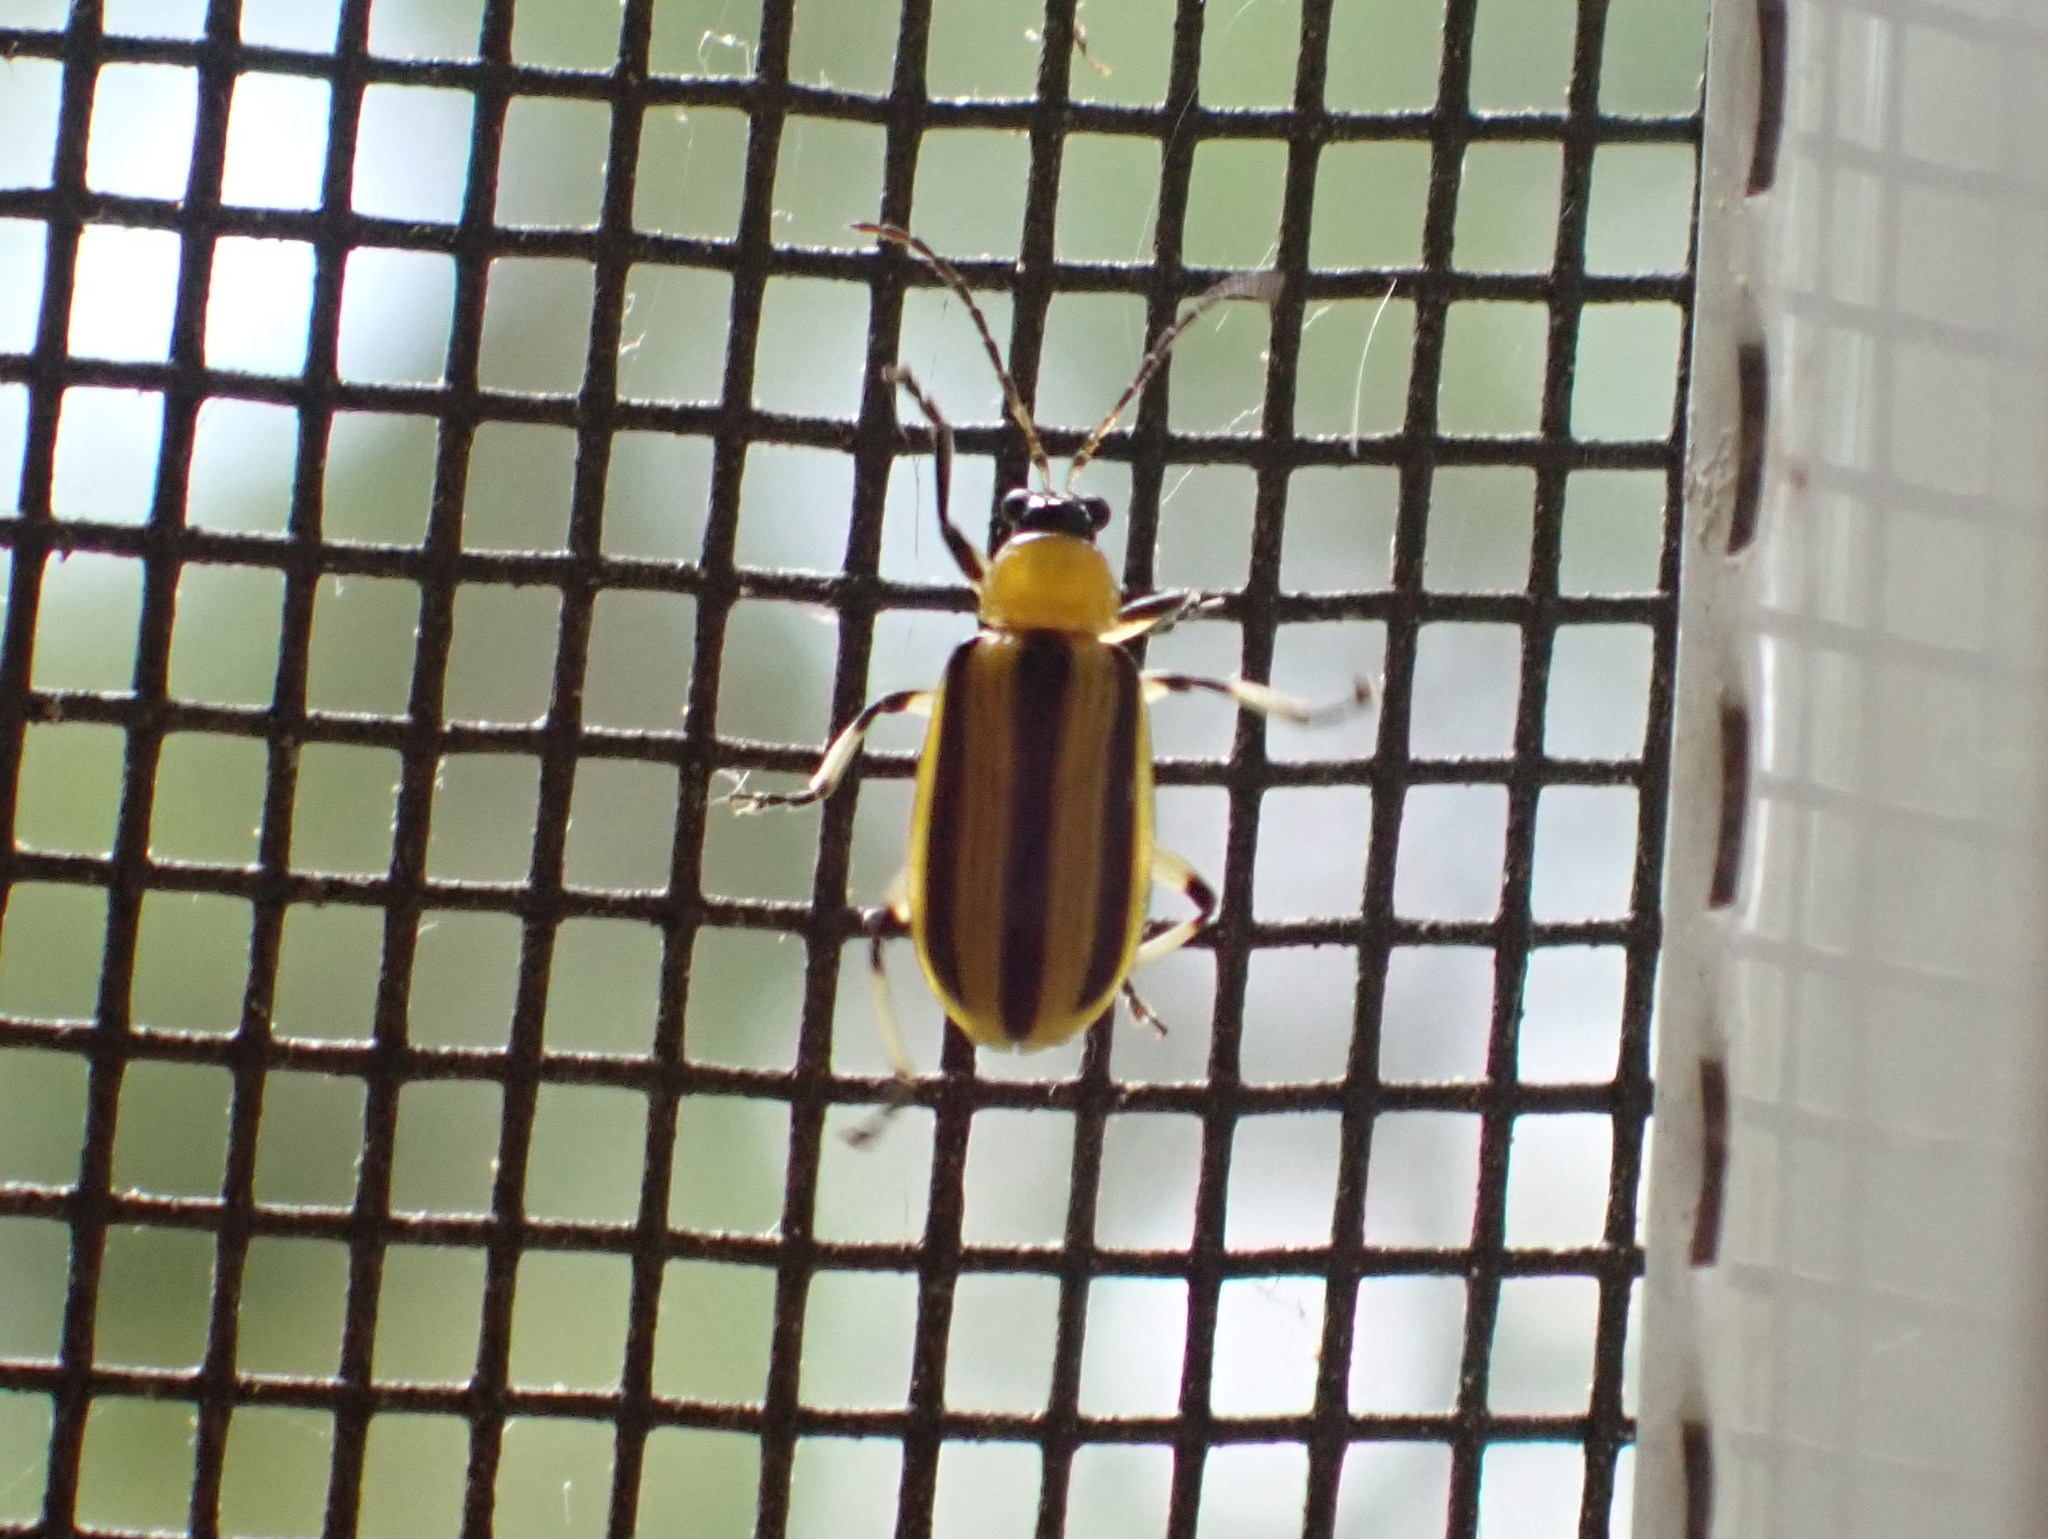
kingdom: Animalia
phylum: Arthropoda
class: Insecta
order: Coleoptera
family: Chrysomelidae
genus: Acalymma
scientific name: Acalymma vittatum
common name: Striped cucumber beetle
